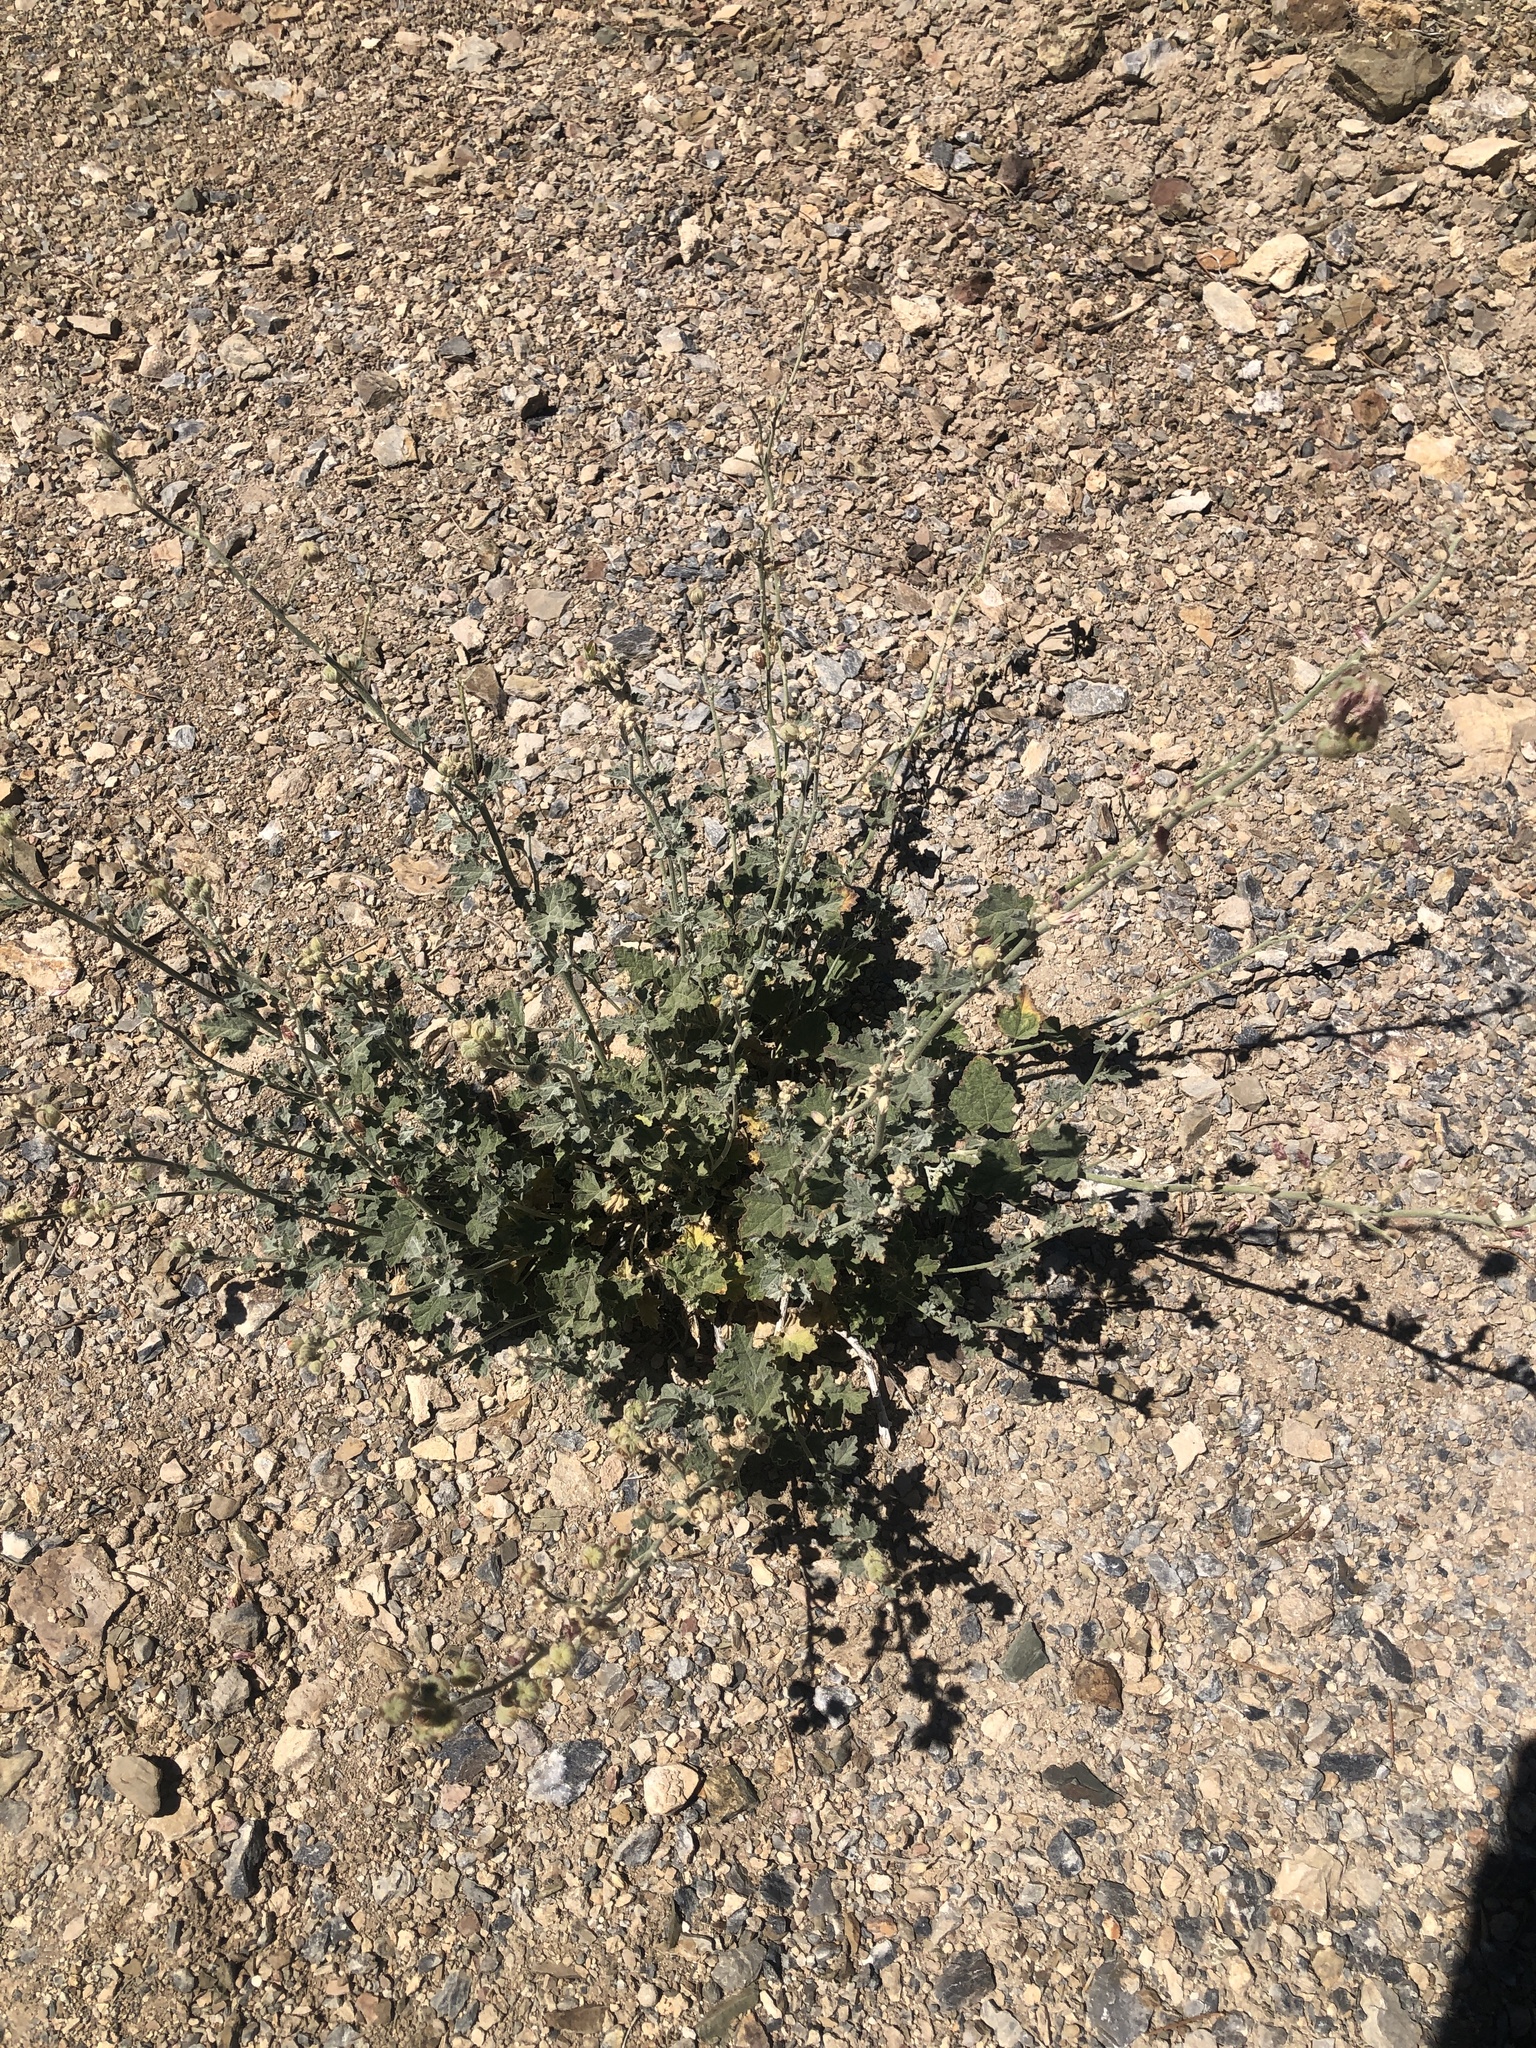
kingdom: Plantae
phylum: Tracheophyta
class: Magnoliopsida
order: Malvales
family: Malvaceae
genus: Sphaeralcea
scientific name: Sphaeralcea ambigua
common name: Apricot globe-mallow
